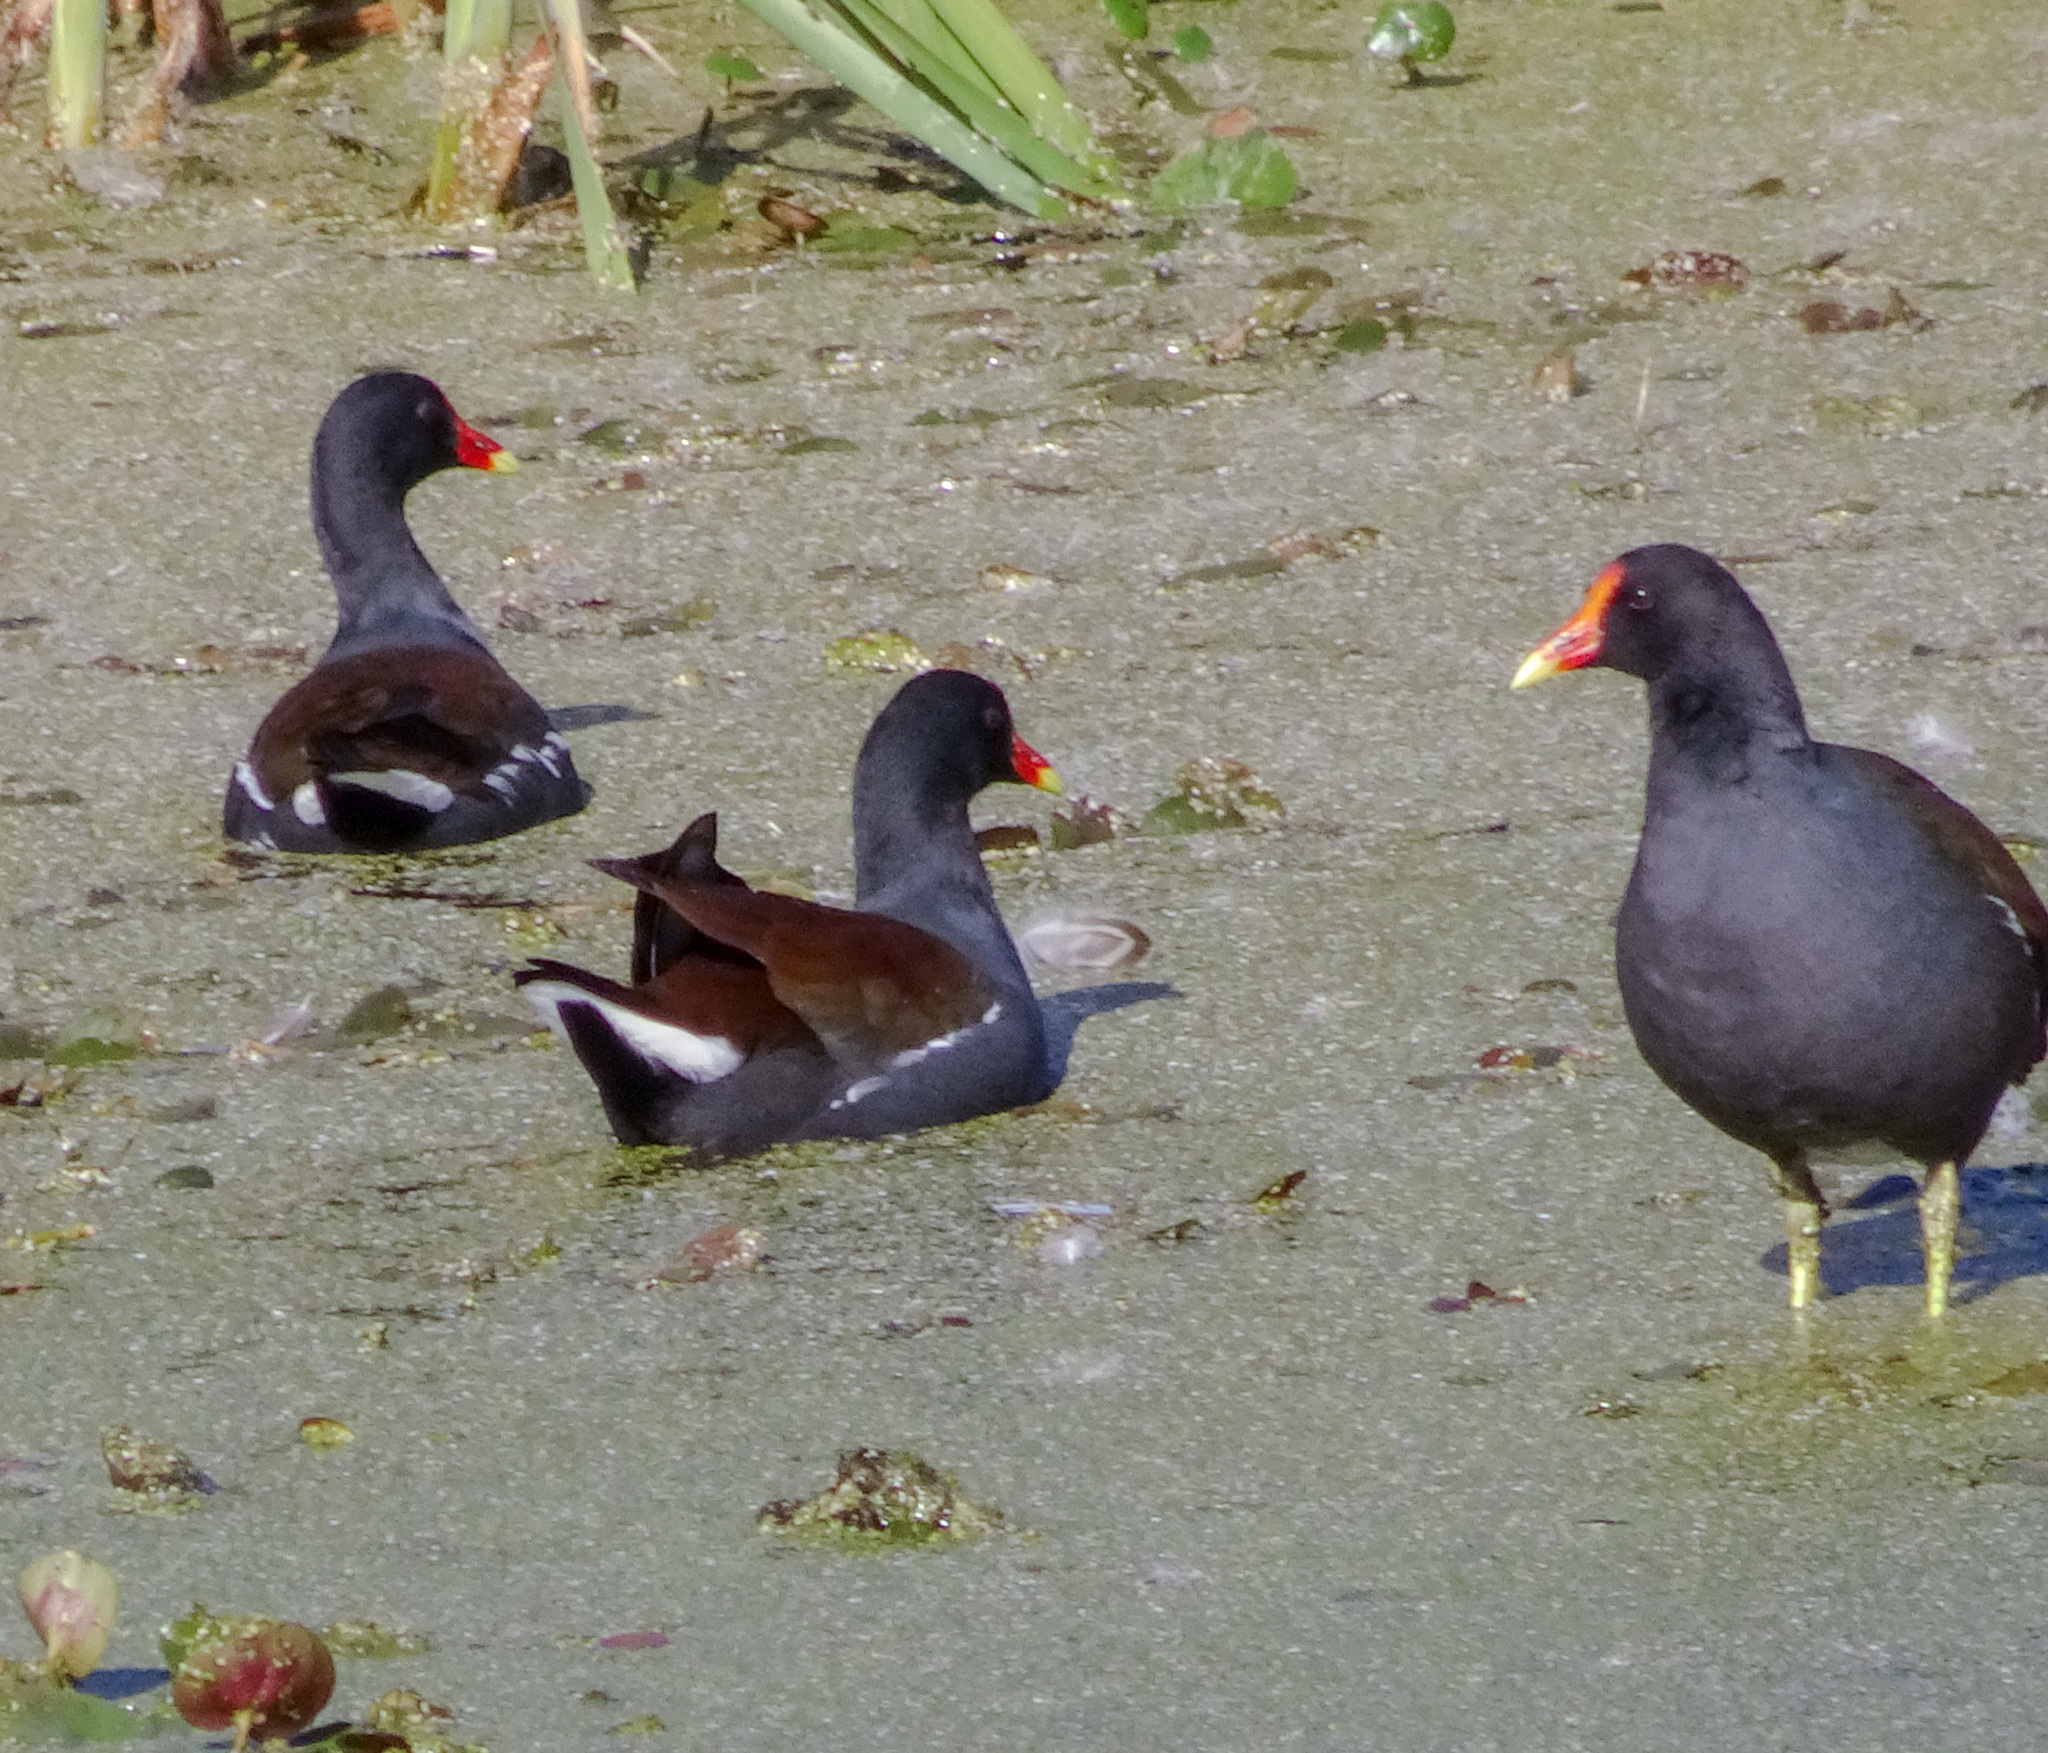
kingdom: Animalia
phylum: Chordata
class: Aves
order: Gruiformes
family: Rallidae
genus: Gallinula
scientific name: Gallinula chloropus
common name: Common moorhen
